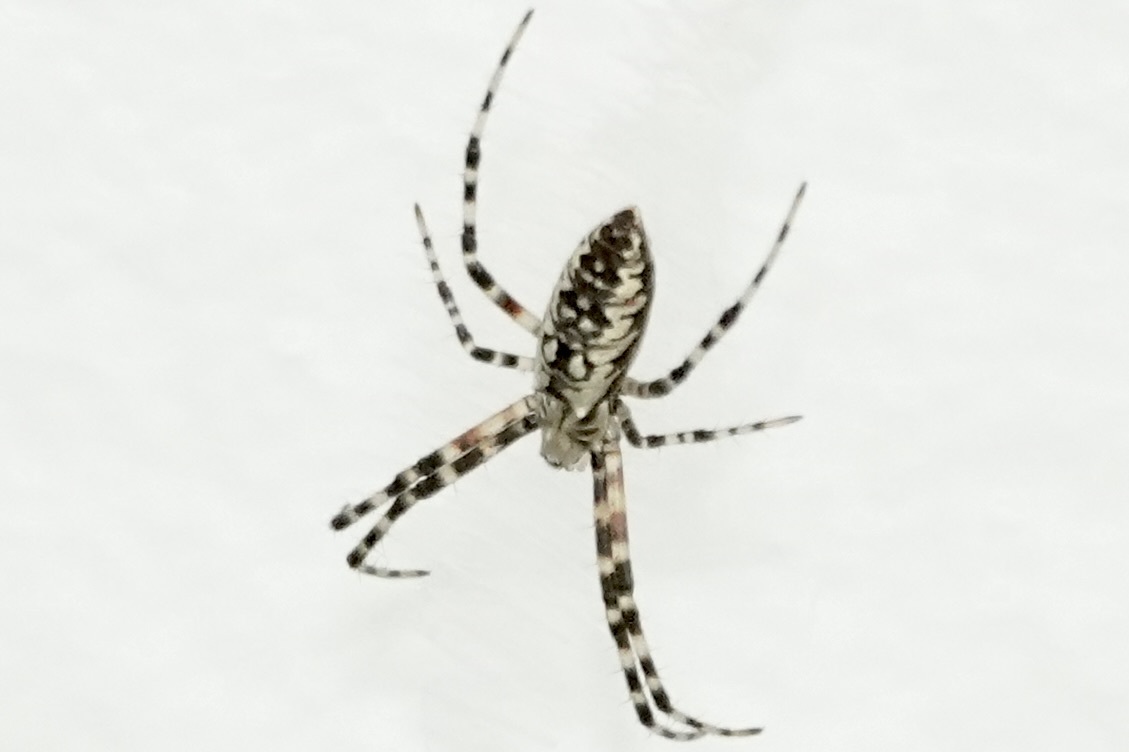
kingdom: Animalia
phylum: Arthropoda
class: Arachnida
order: Araneae
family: Araneidae
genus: Argiope
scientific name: Argiope aurantia
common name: Orb weavers
